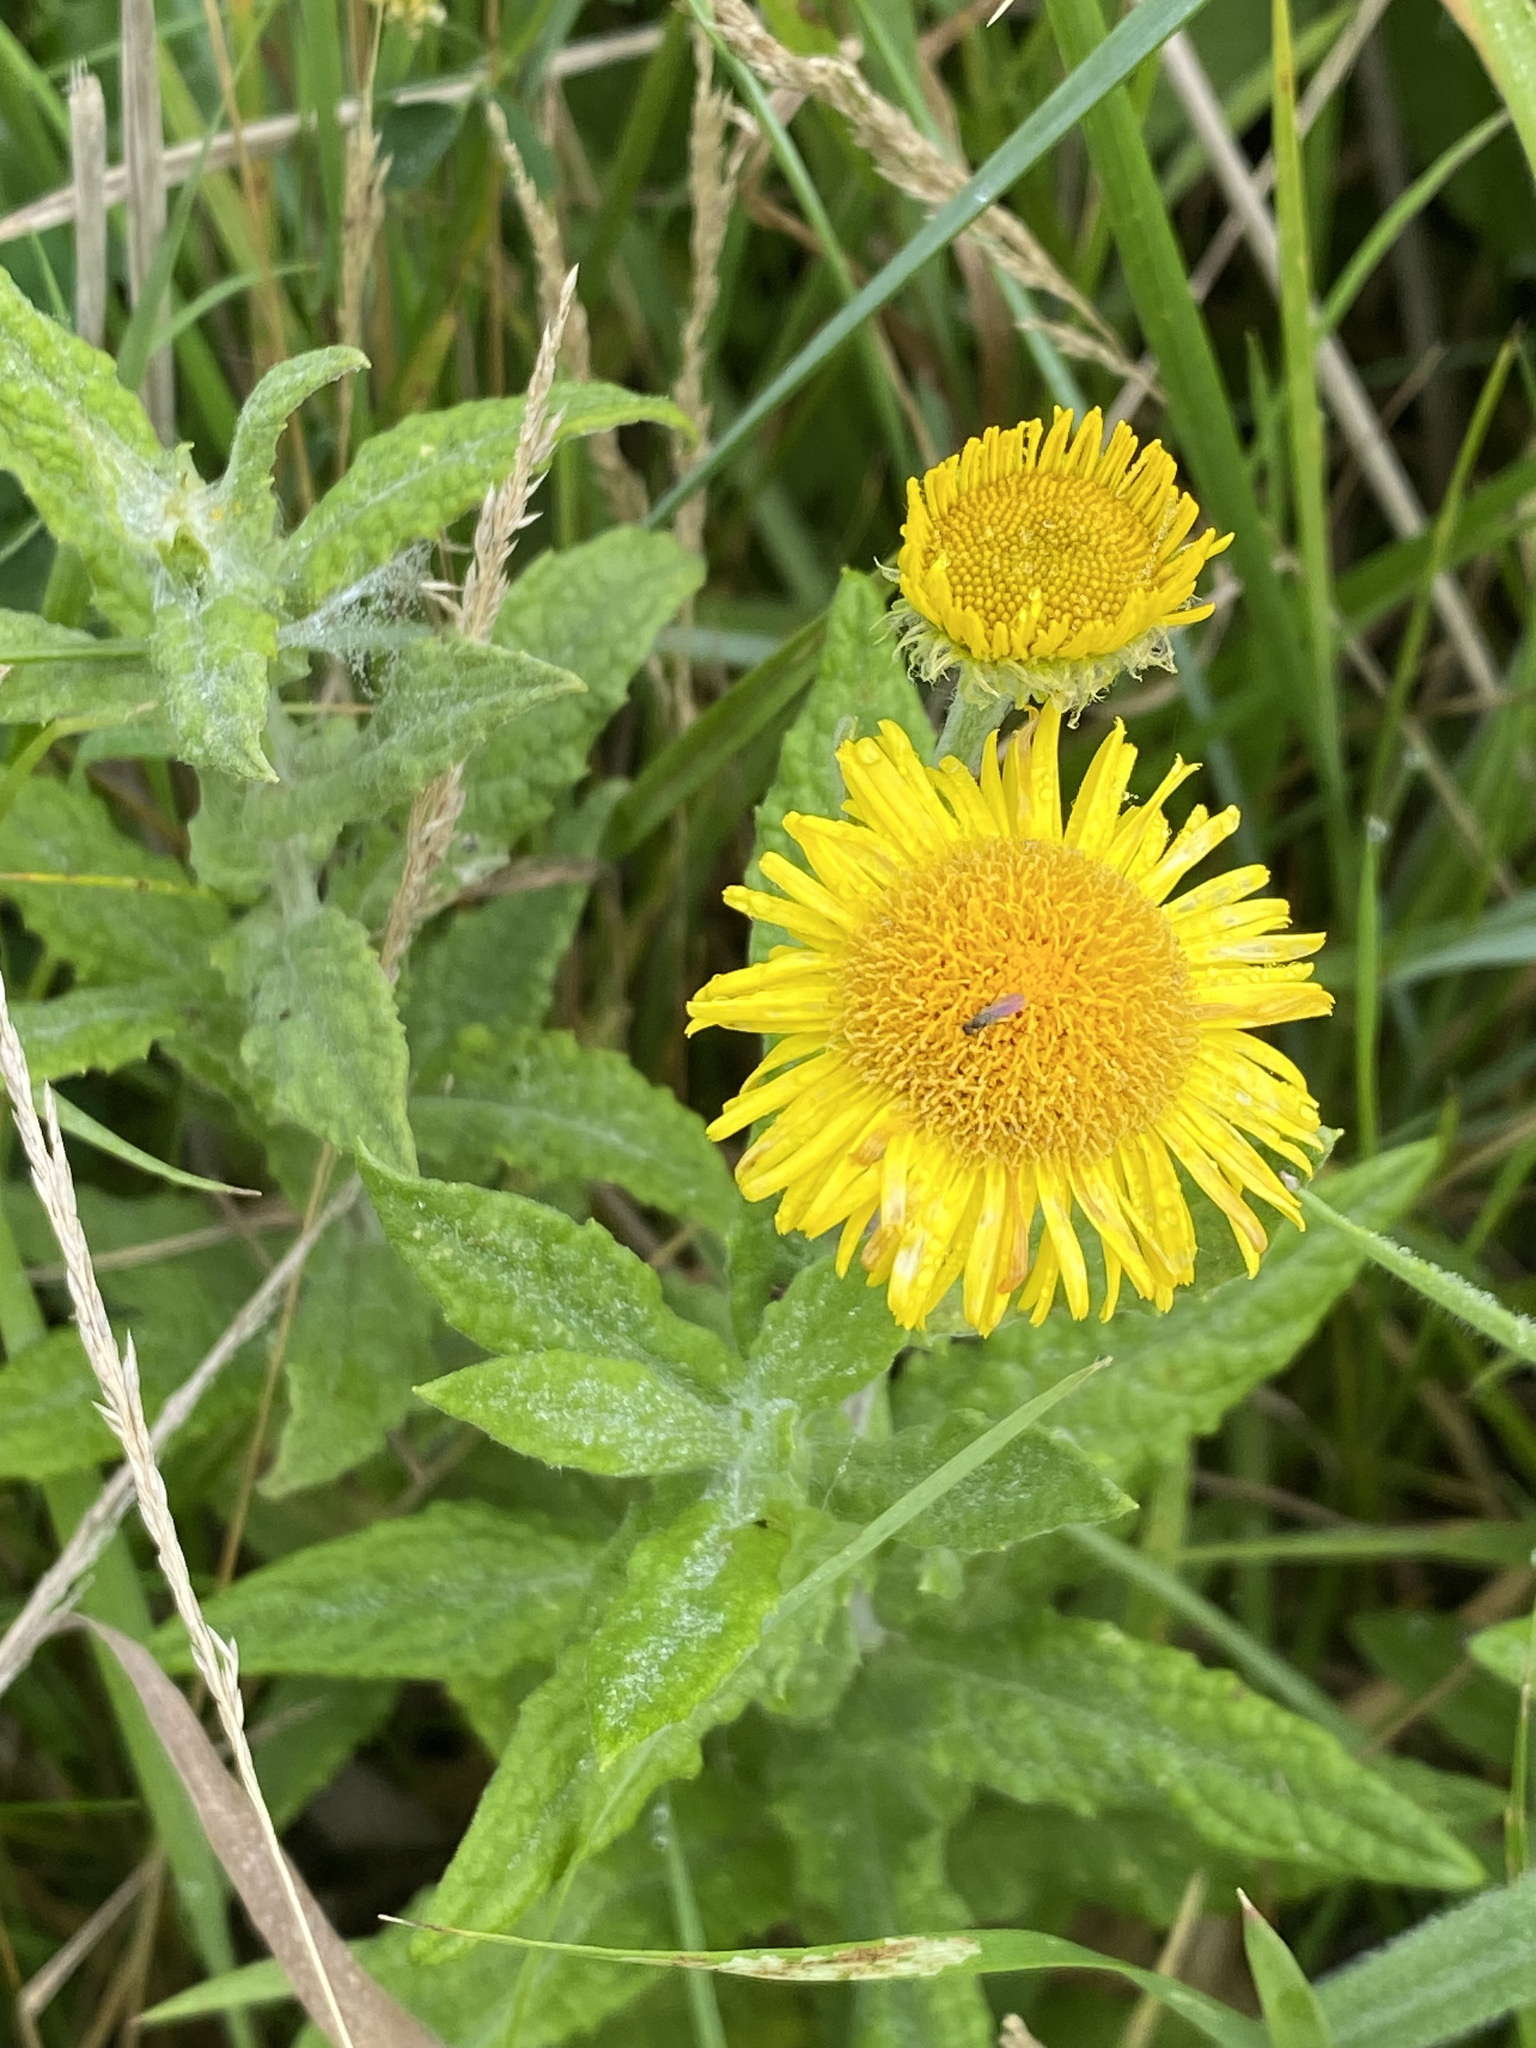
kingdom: Plantae
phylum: Tracheophyta
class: Magnoliopsida
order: Asterales
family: Asteraceae
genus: Pulicaria
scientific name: Pulicaria dysenterica
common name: Common fleabane
